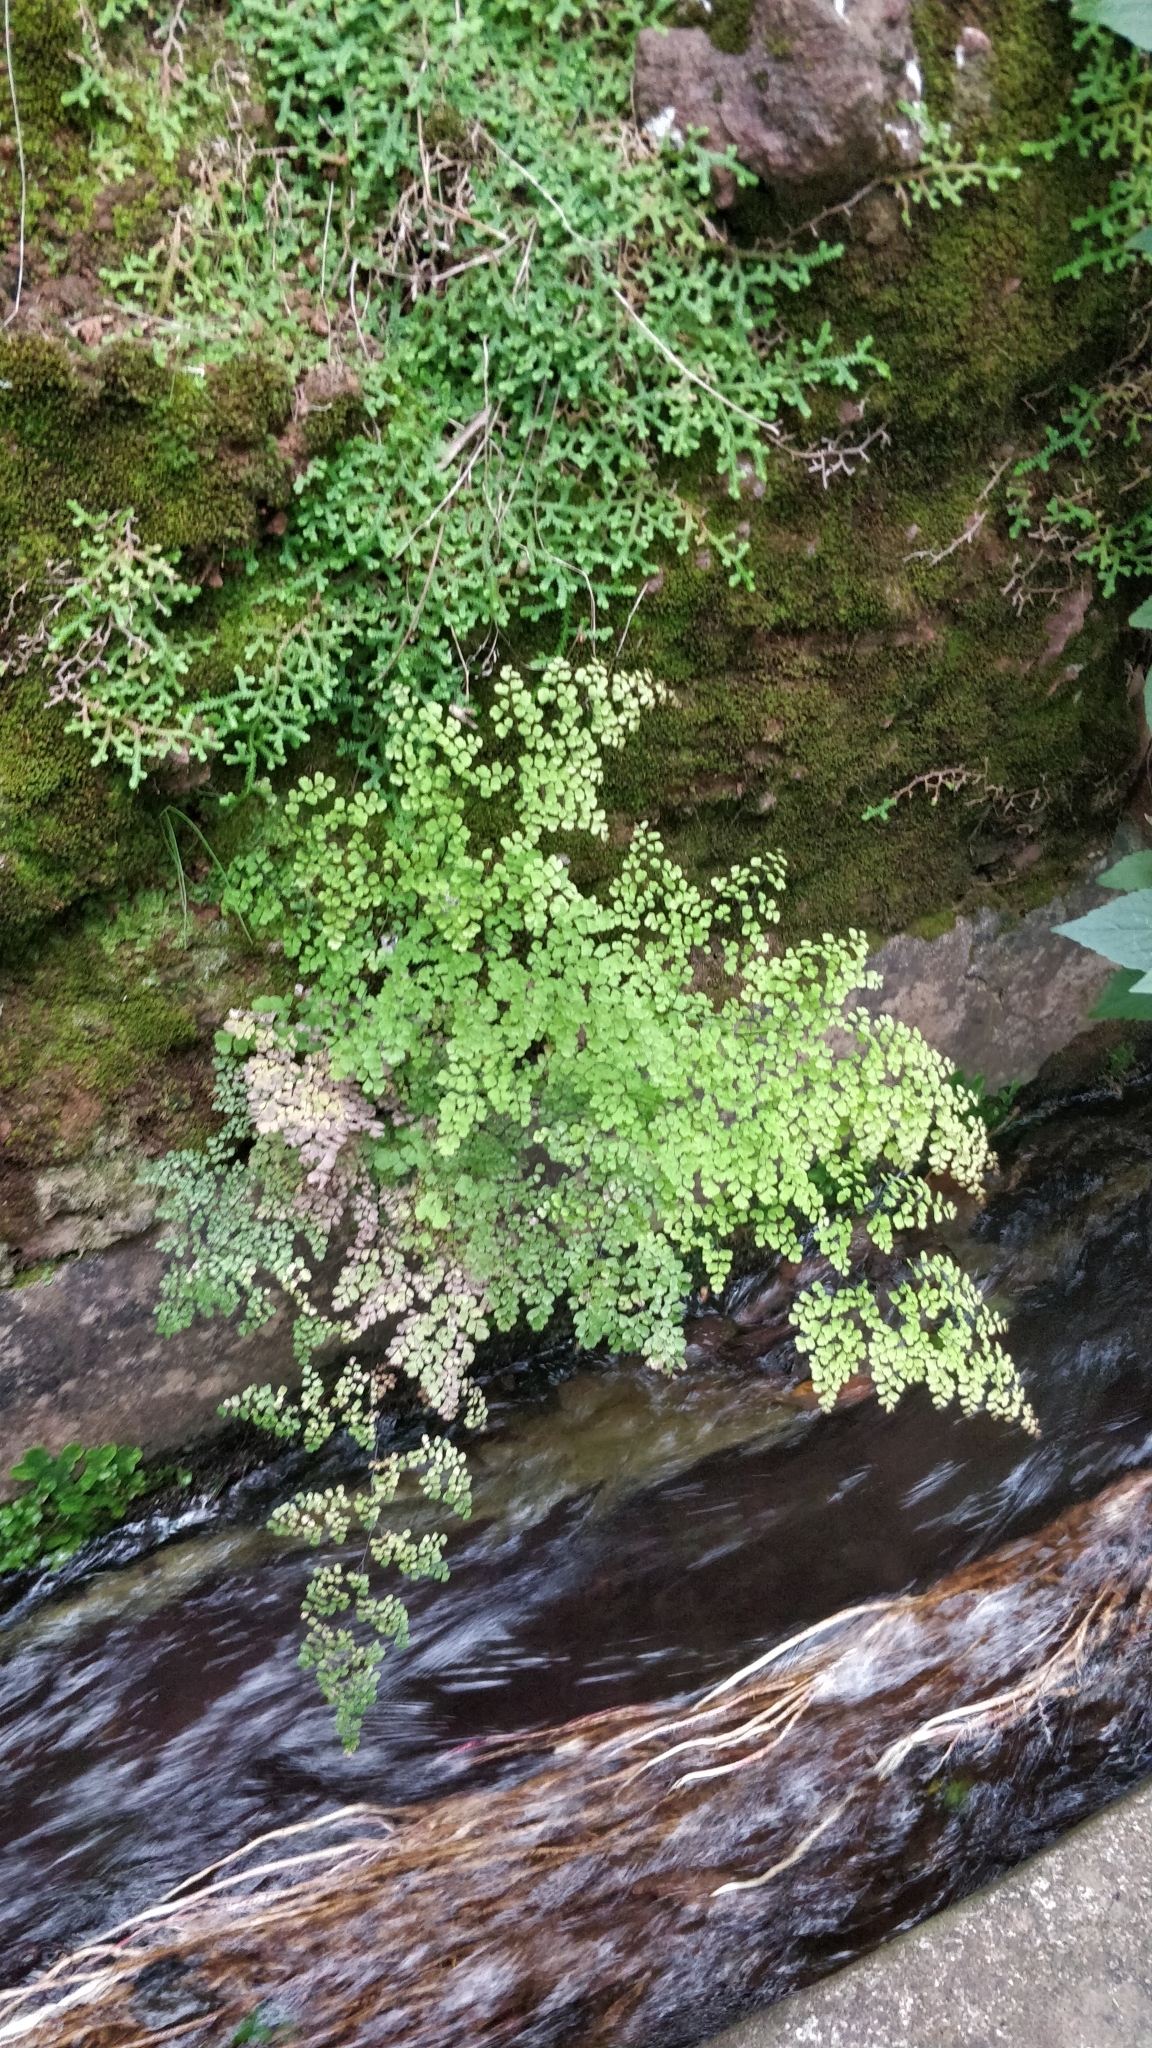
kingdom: Plantae
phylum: Tracheophyta
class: Polypodiopsida
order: Polypodiales
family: Pteridaceae
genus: Adiantum
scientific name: Adiantum raddianum
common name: Delta maidenhair fern
